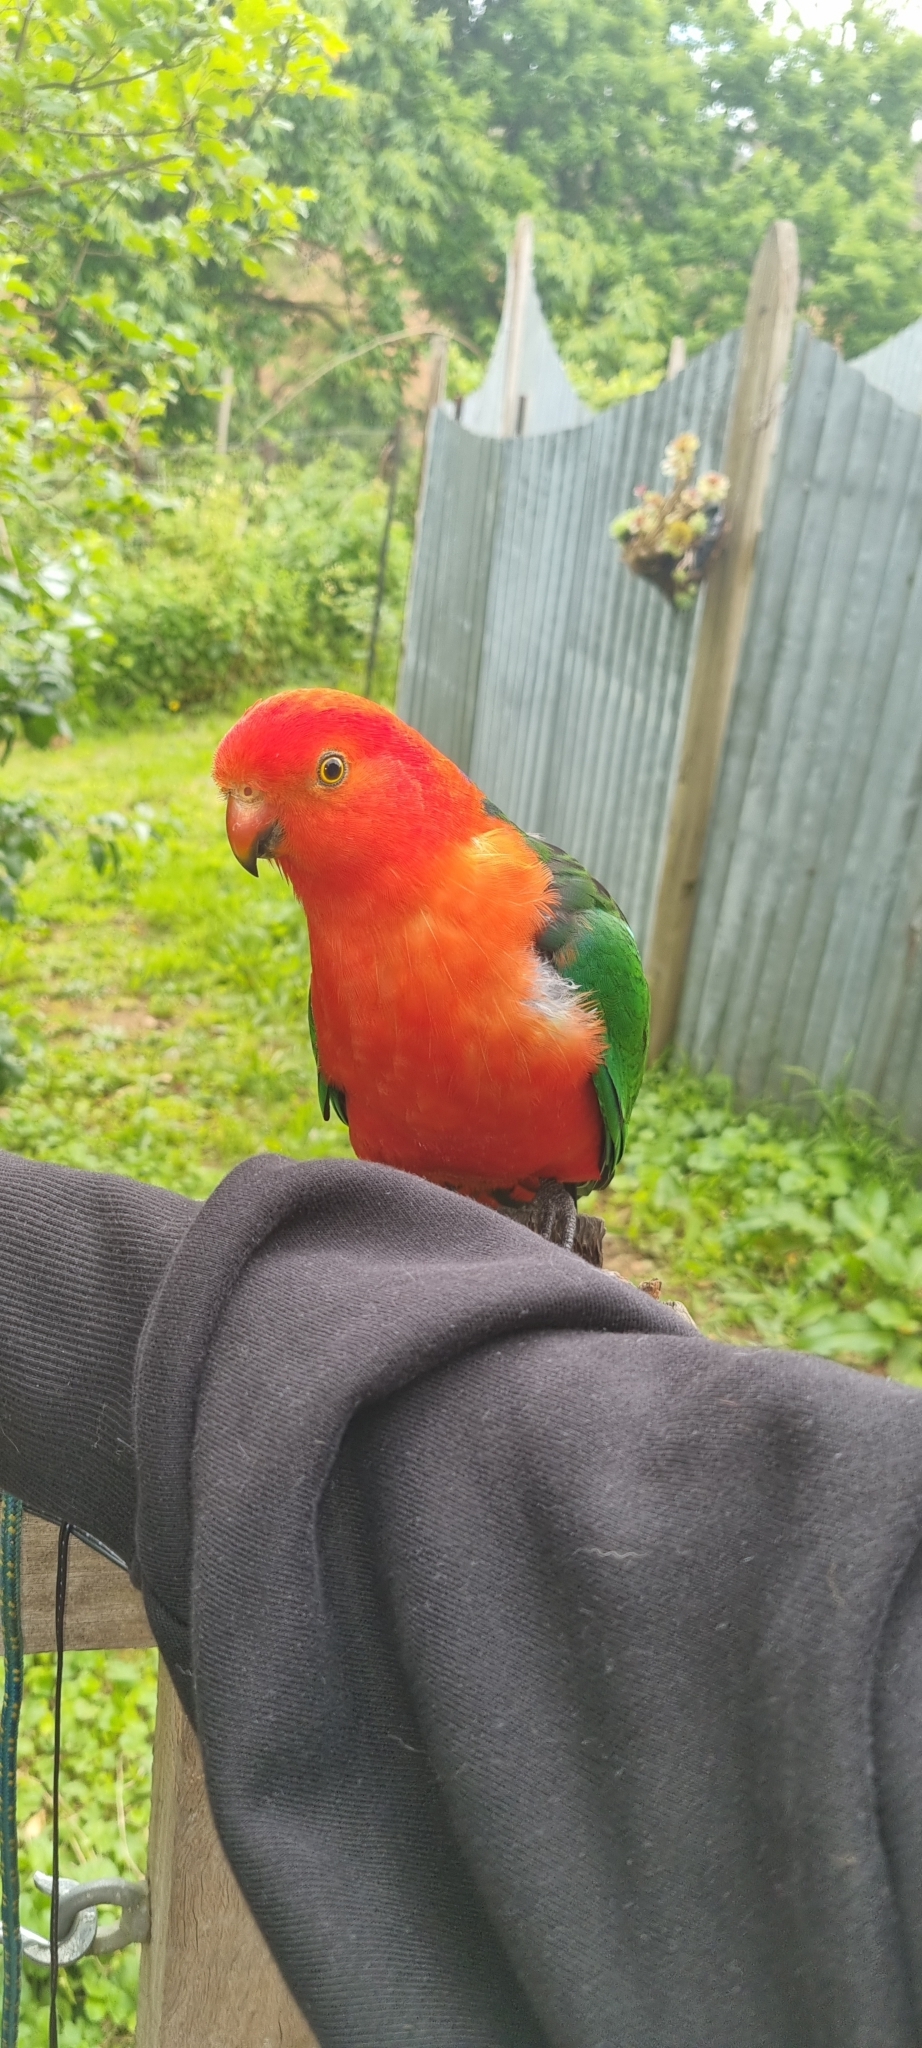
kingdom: Animalia
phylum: Chordata
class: Aves
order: Psittaciformes
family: Psittacidae
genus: Alisterus
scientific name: Alisterus scapularis
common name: Australian king parrot
